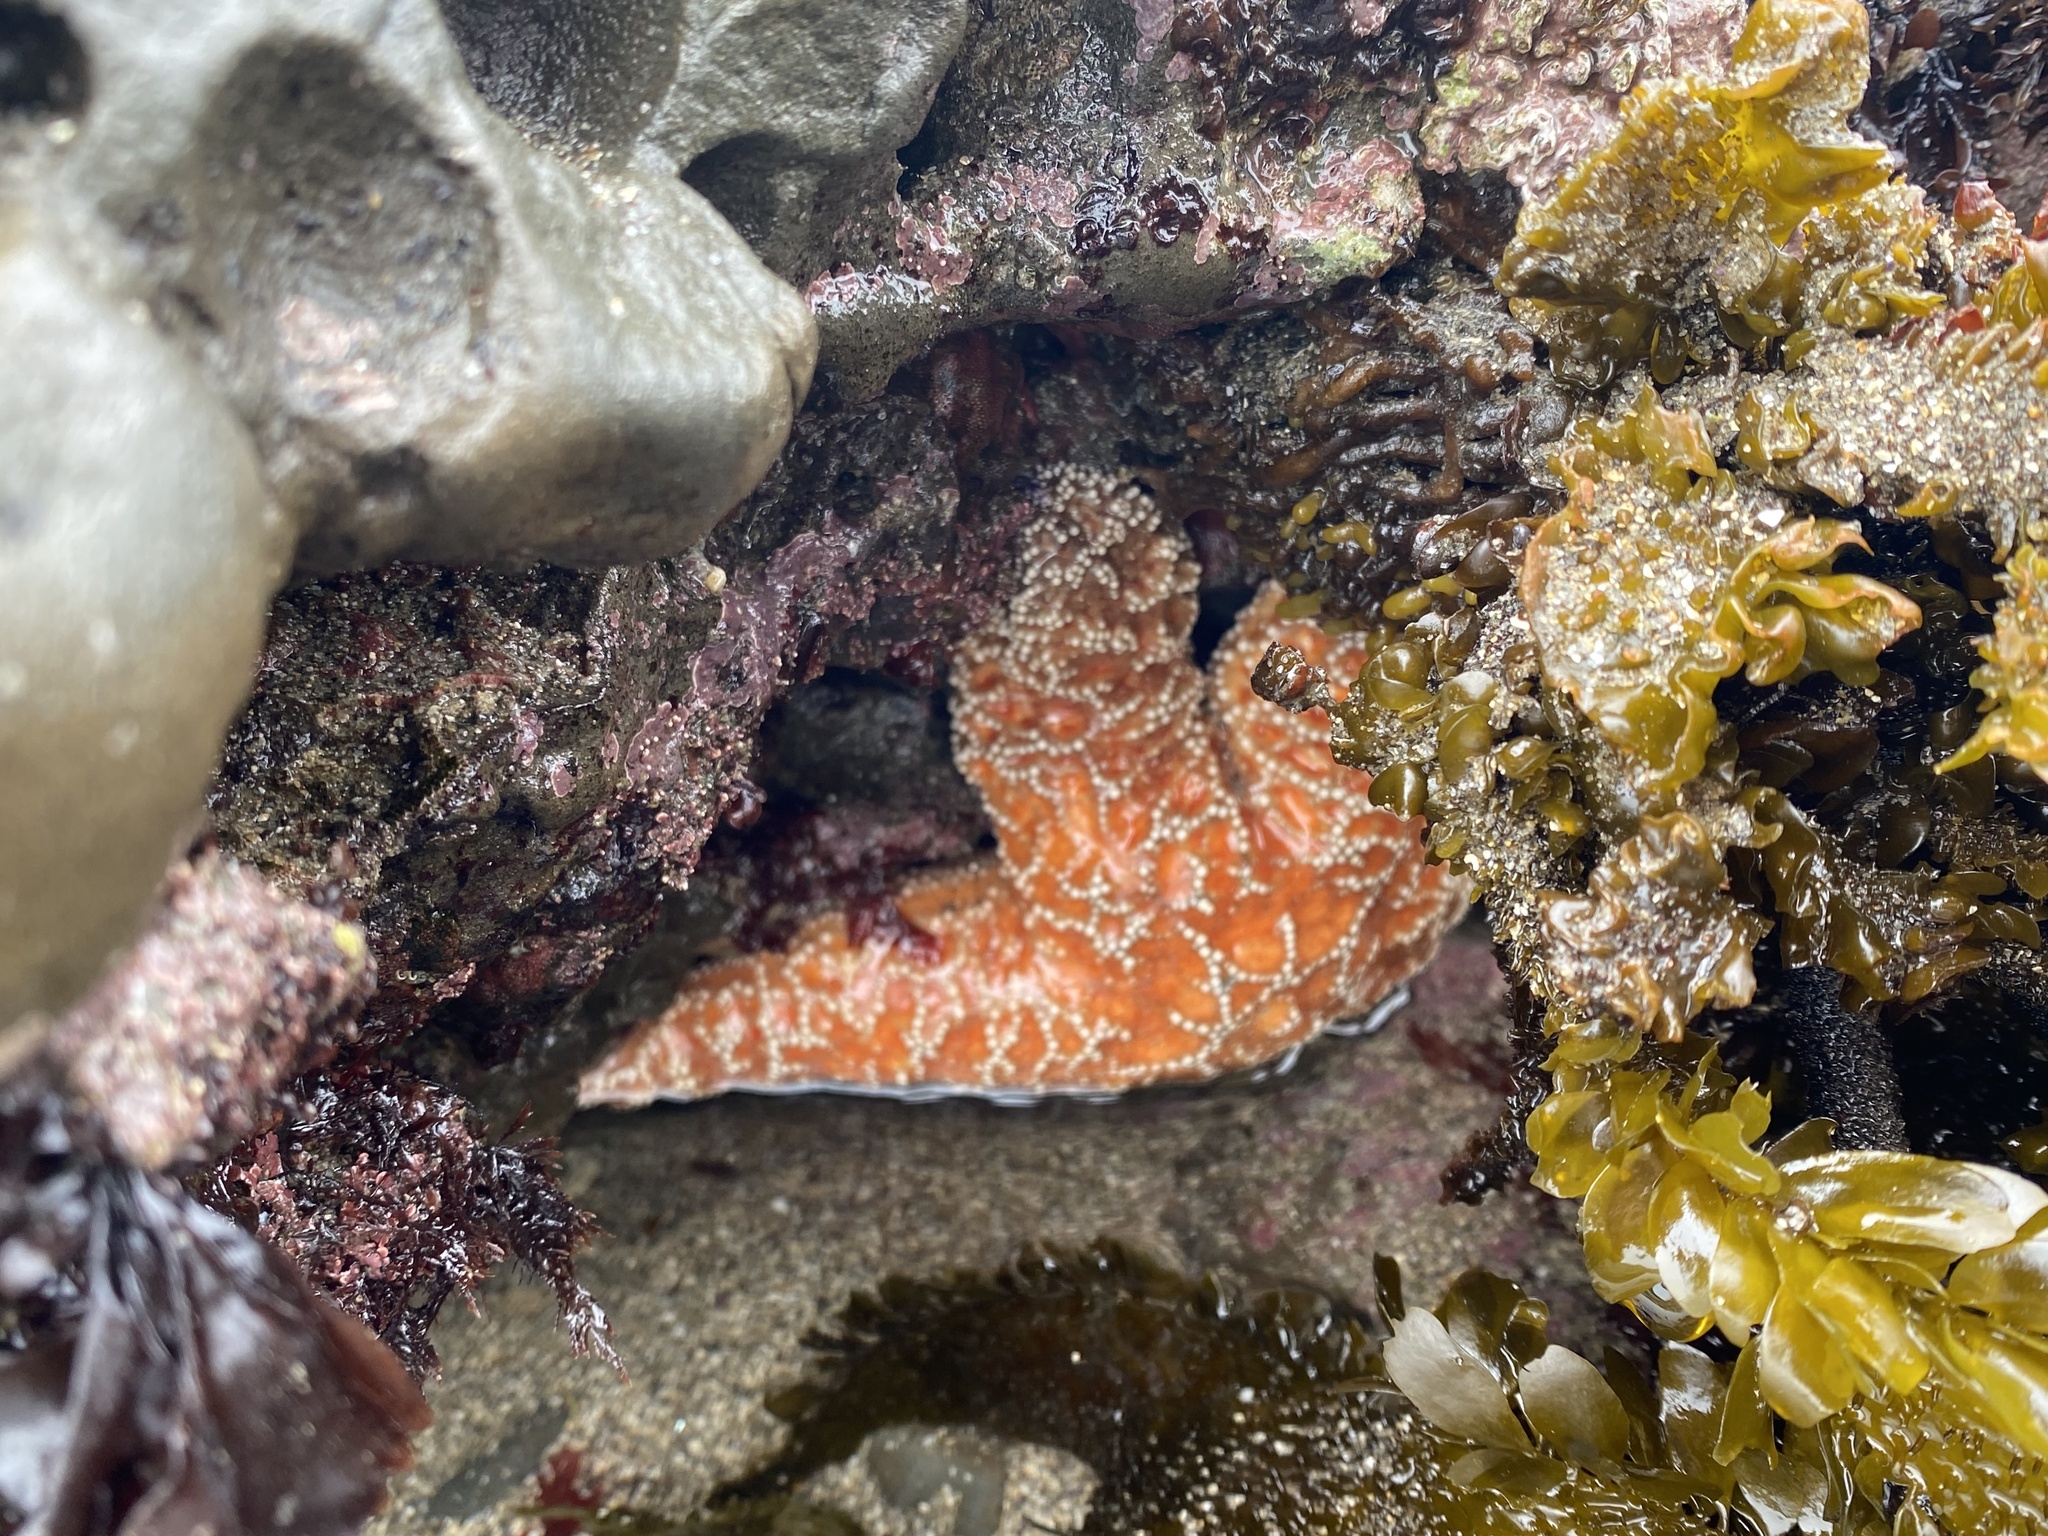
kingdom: Animalia
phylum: Echinodermata
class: Asteroidea
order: Forcipulatida
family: Asteriidae
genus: Pisaster
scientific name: Pisaster ochraceus
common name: Ochre stars
